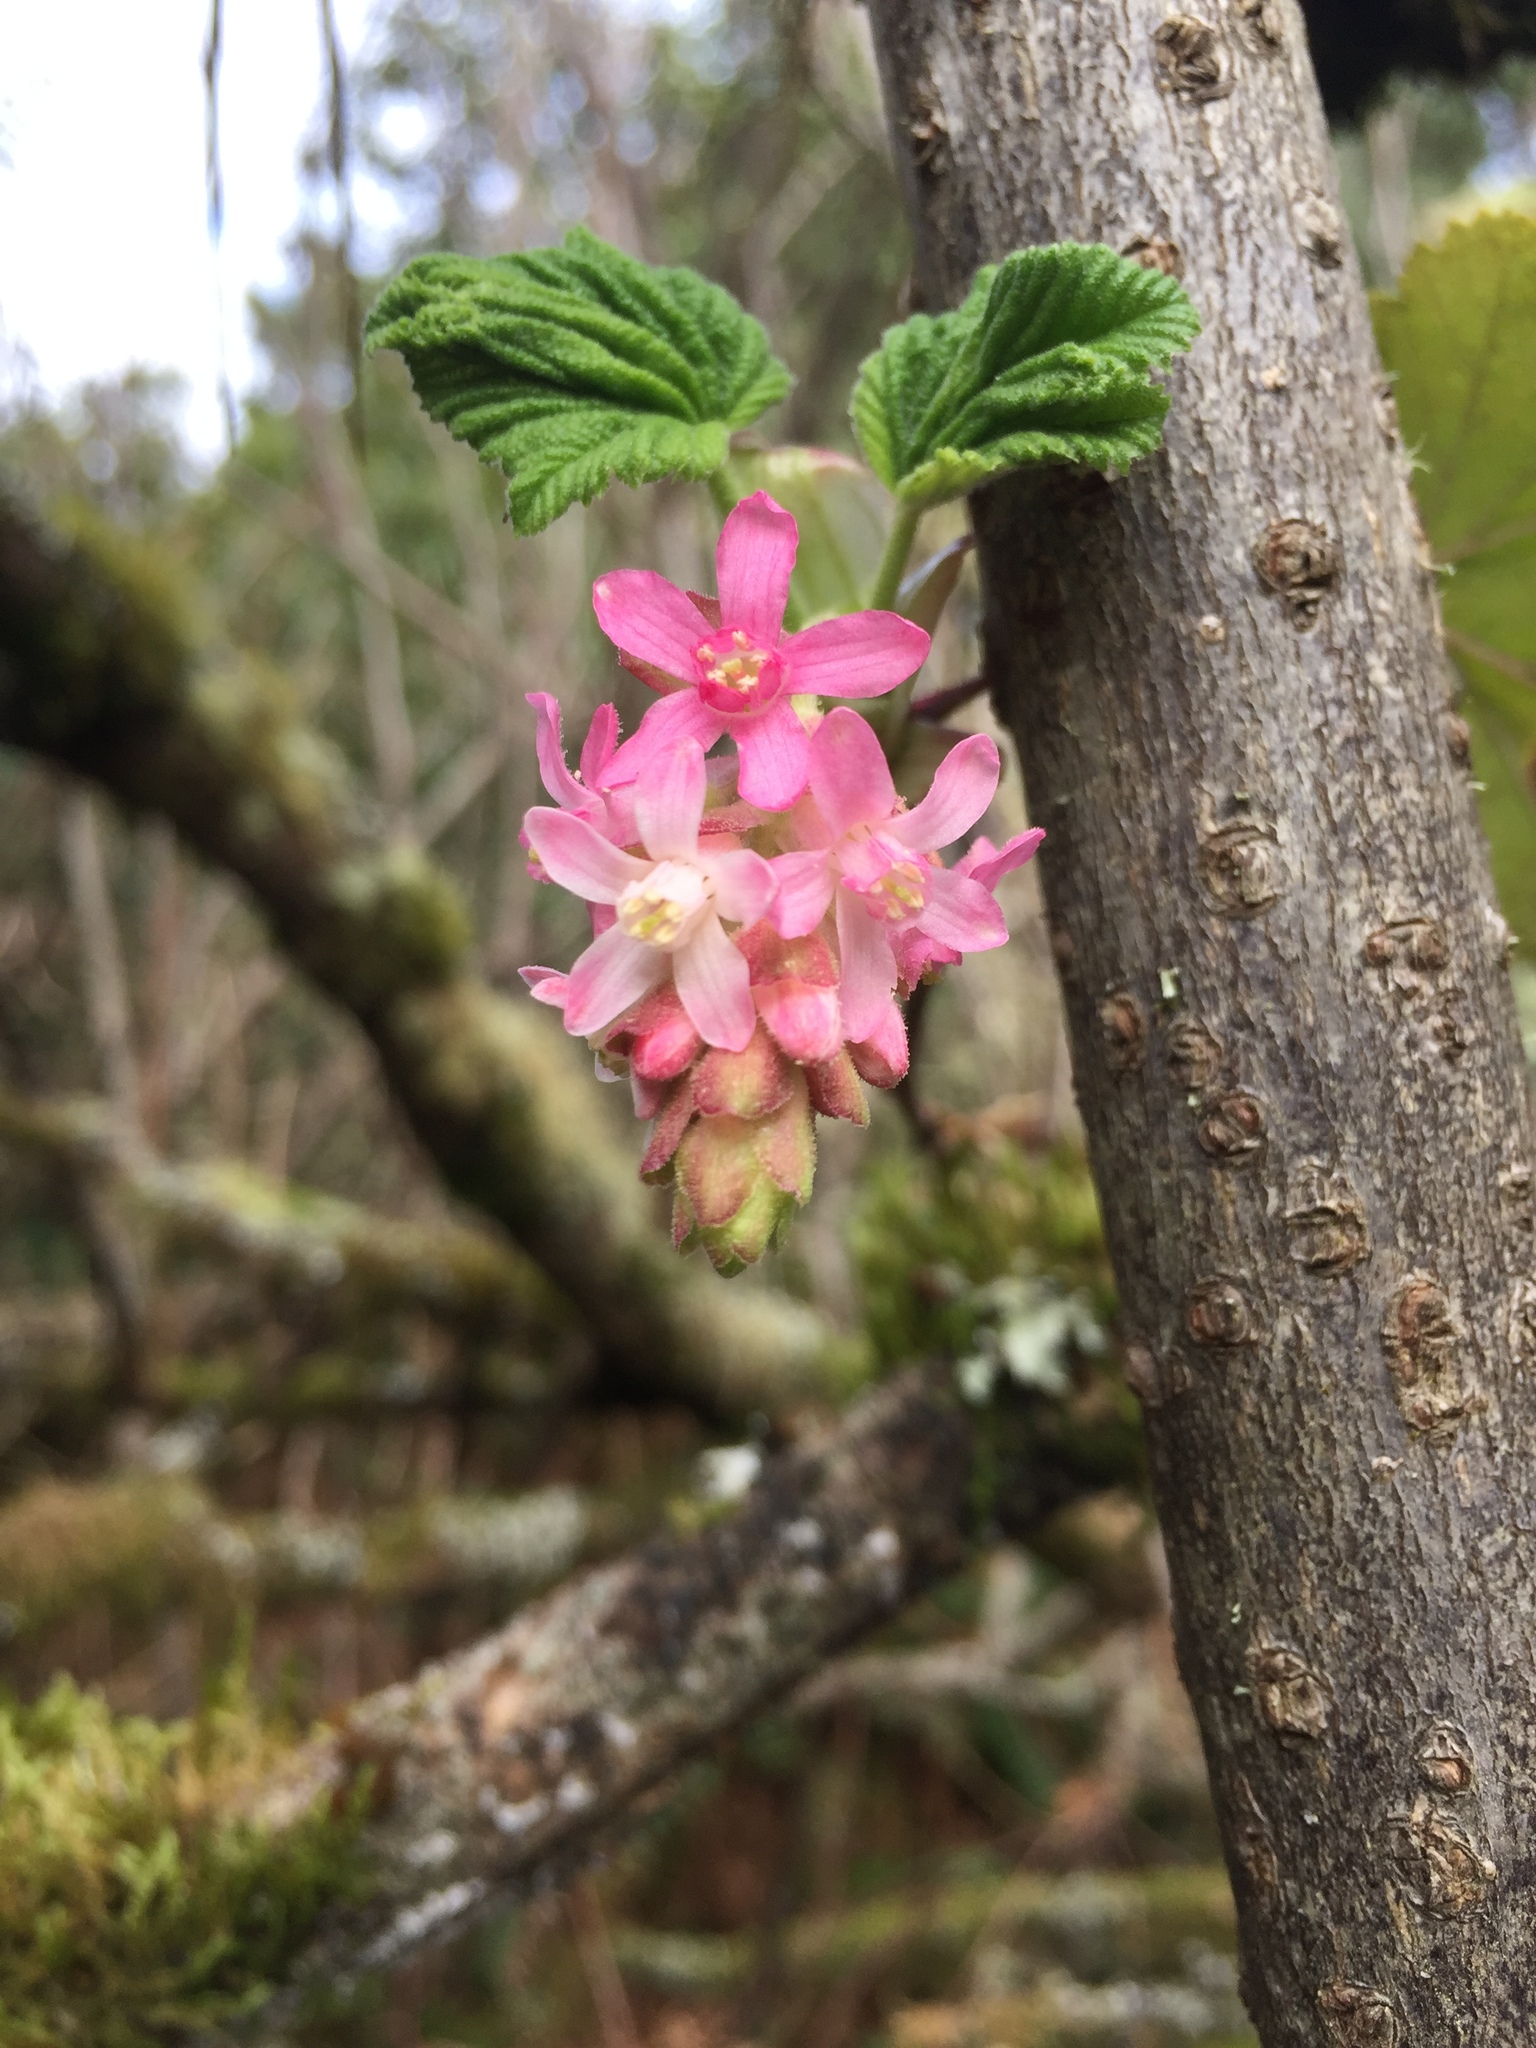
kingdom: Plantae
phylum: Tracheophyta
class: Magnoliopsida
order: Saxifragales
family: Grossulariaceae
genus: Ribes
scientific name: Ribes sanguineum
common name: Flowering currant
